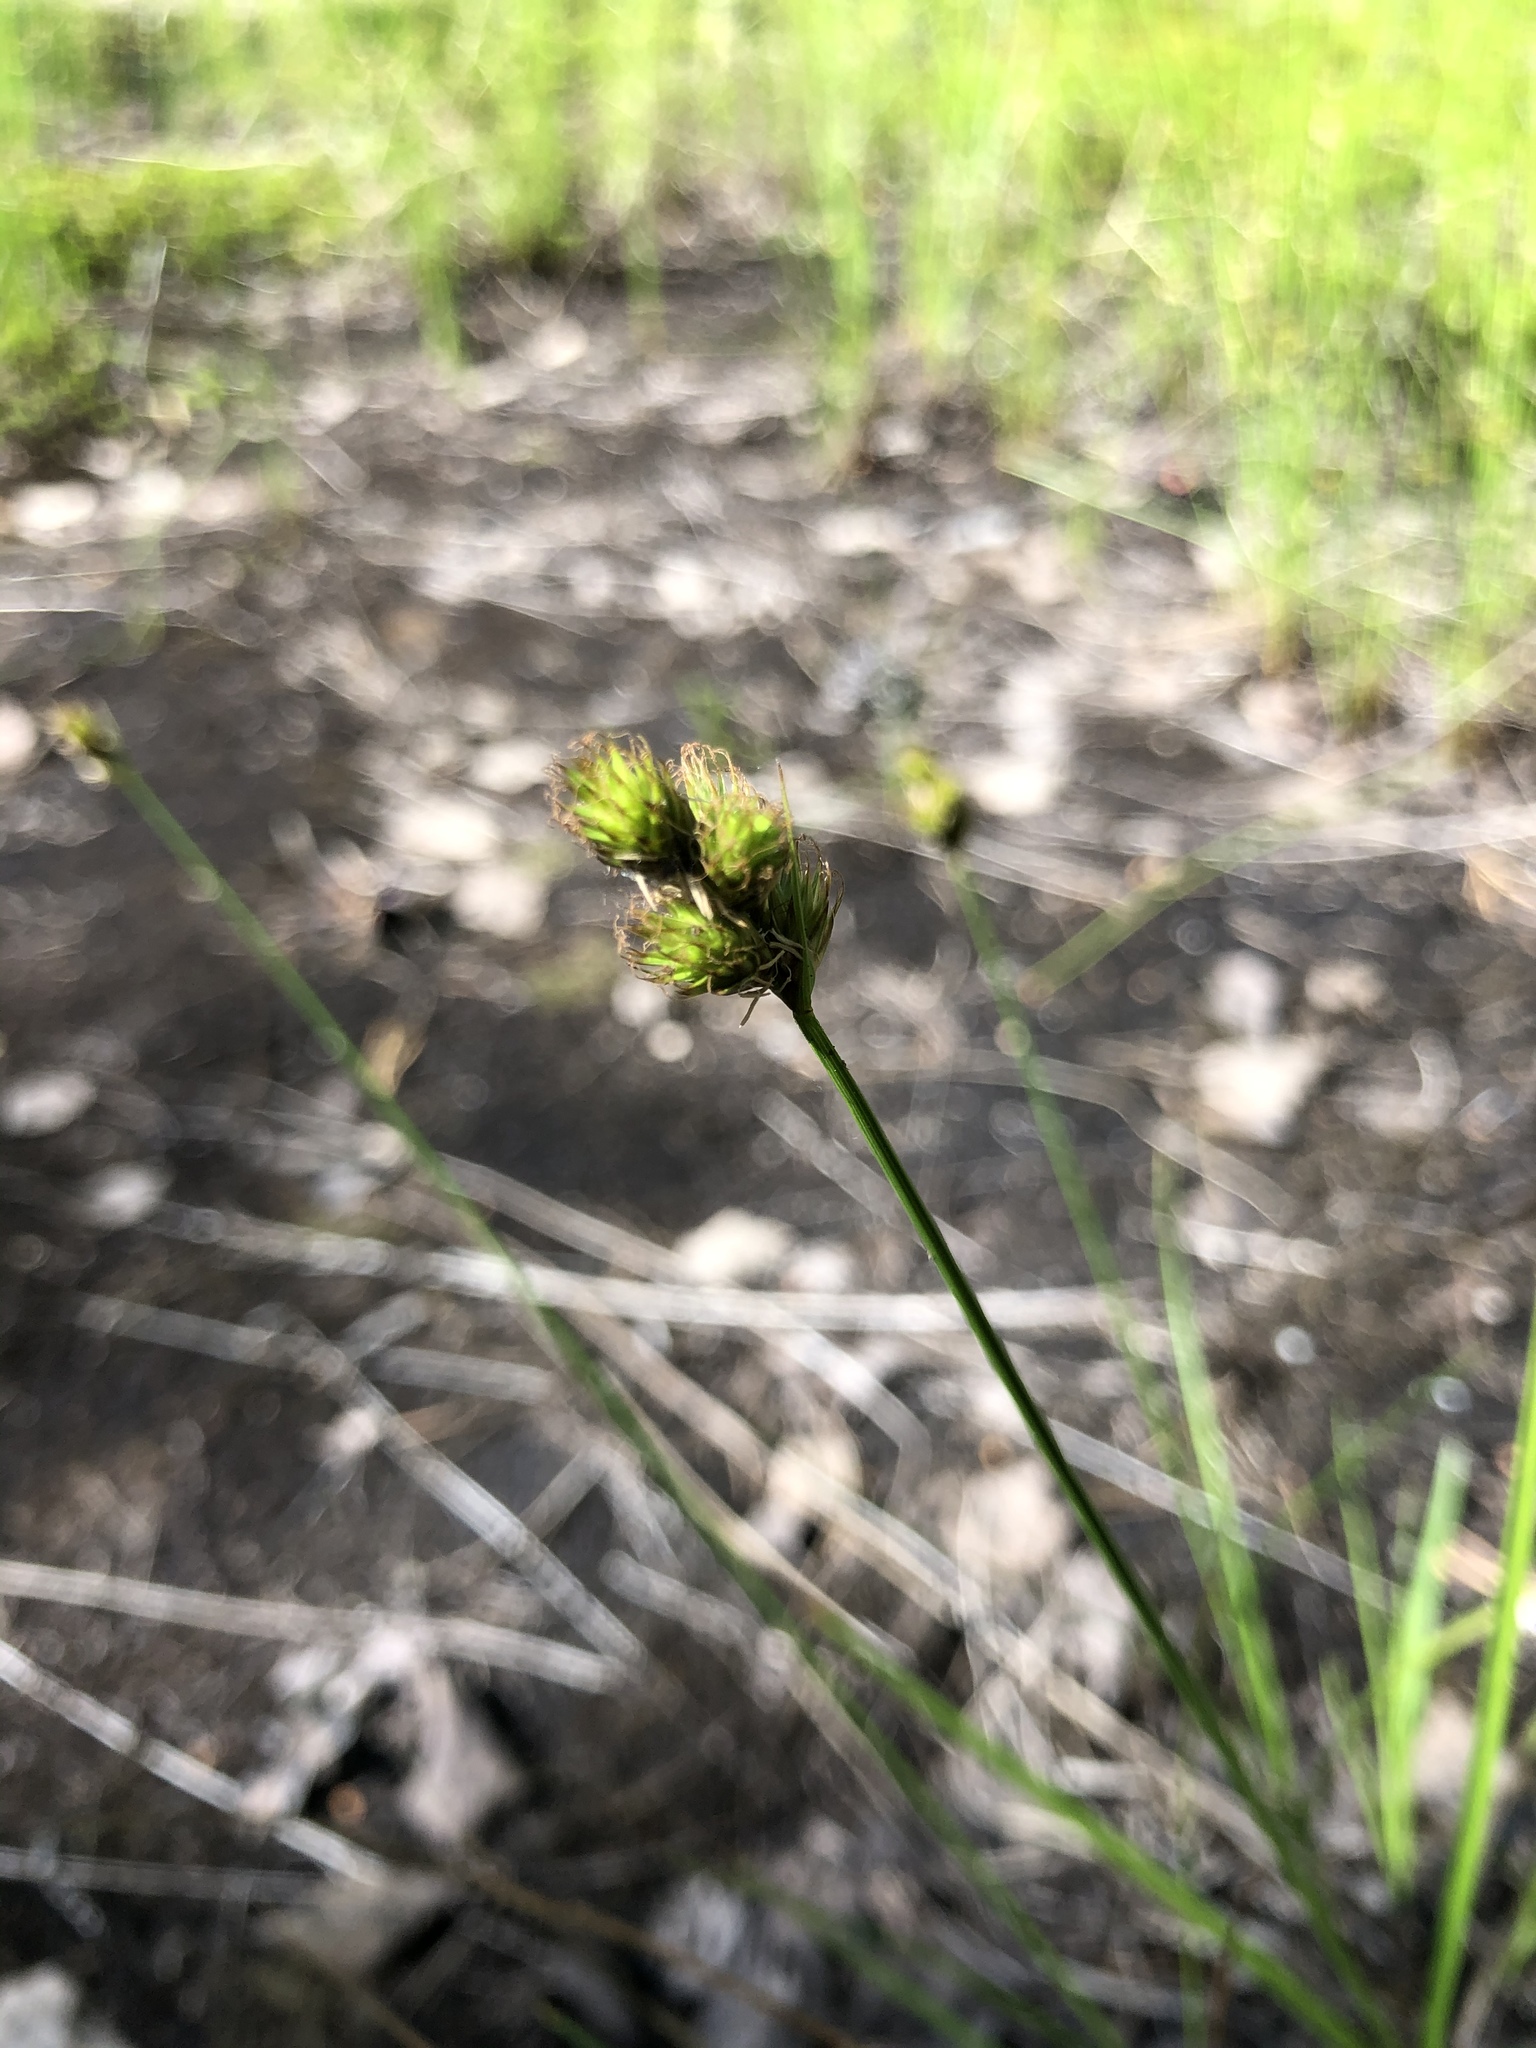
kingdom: Plantae
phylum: Tracheophyta
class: Liliopsida
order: Poales
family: Cyperaceae
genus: Carex
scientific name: Carex leporina
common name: Oval sedge
